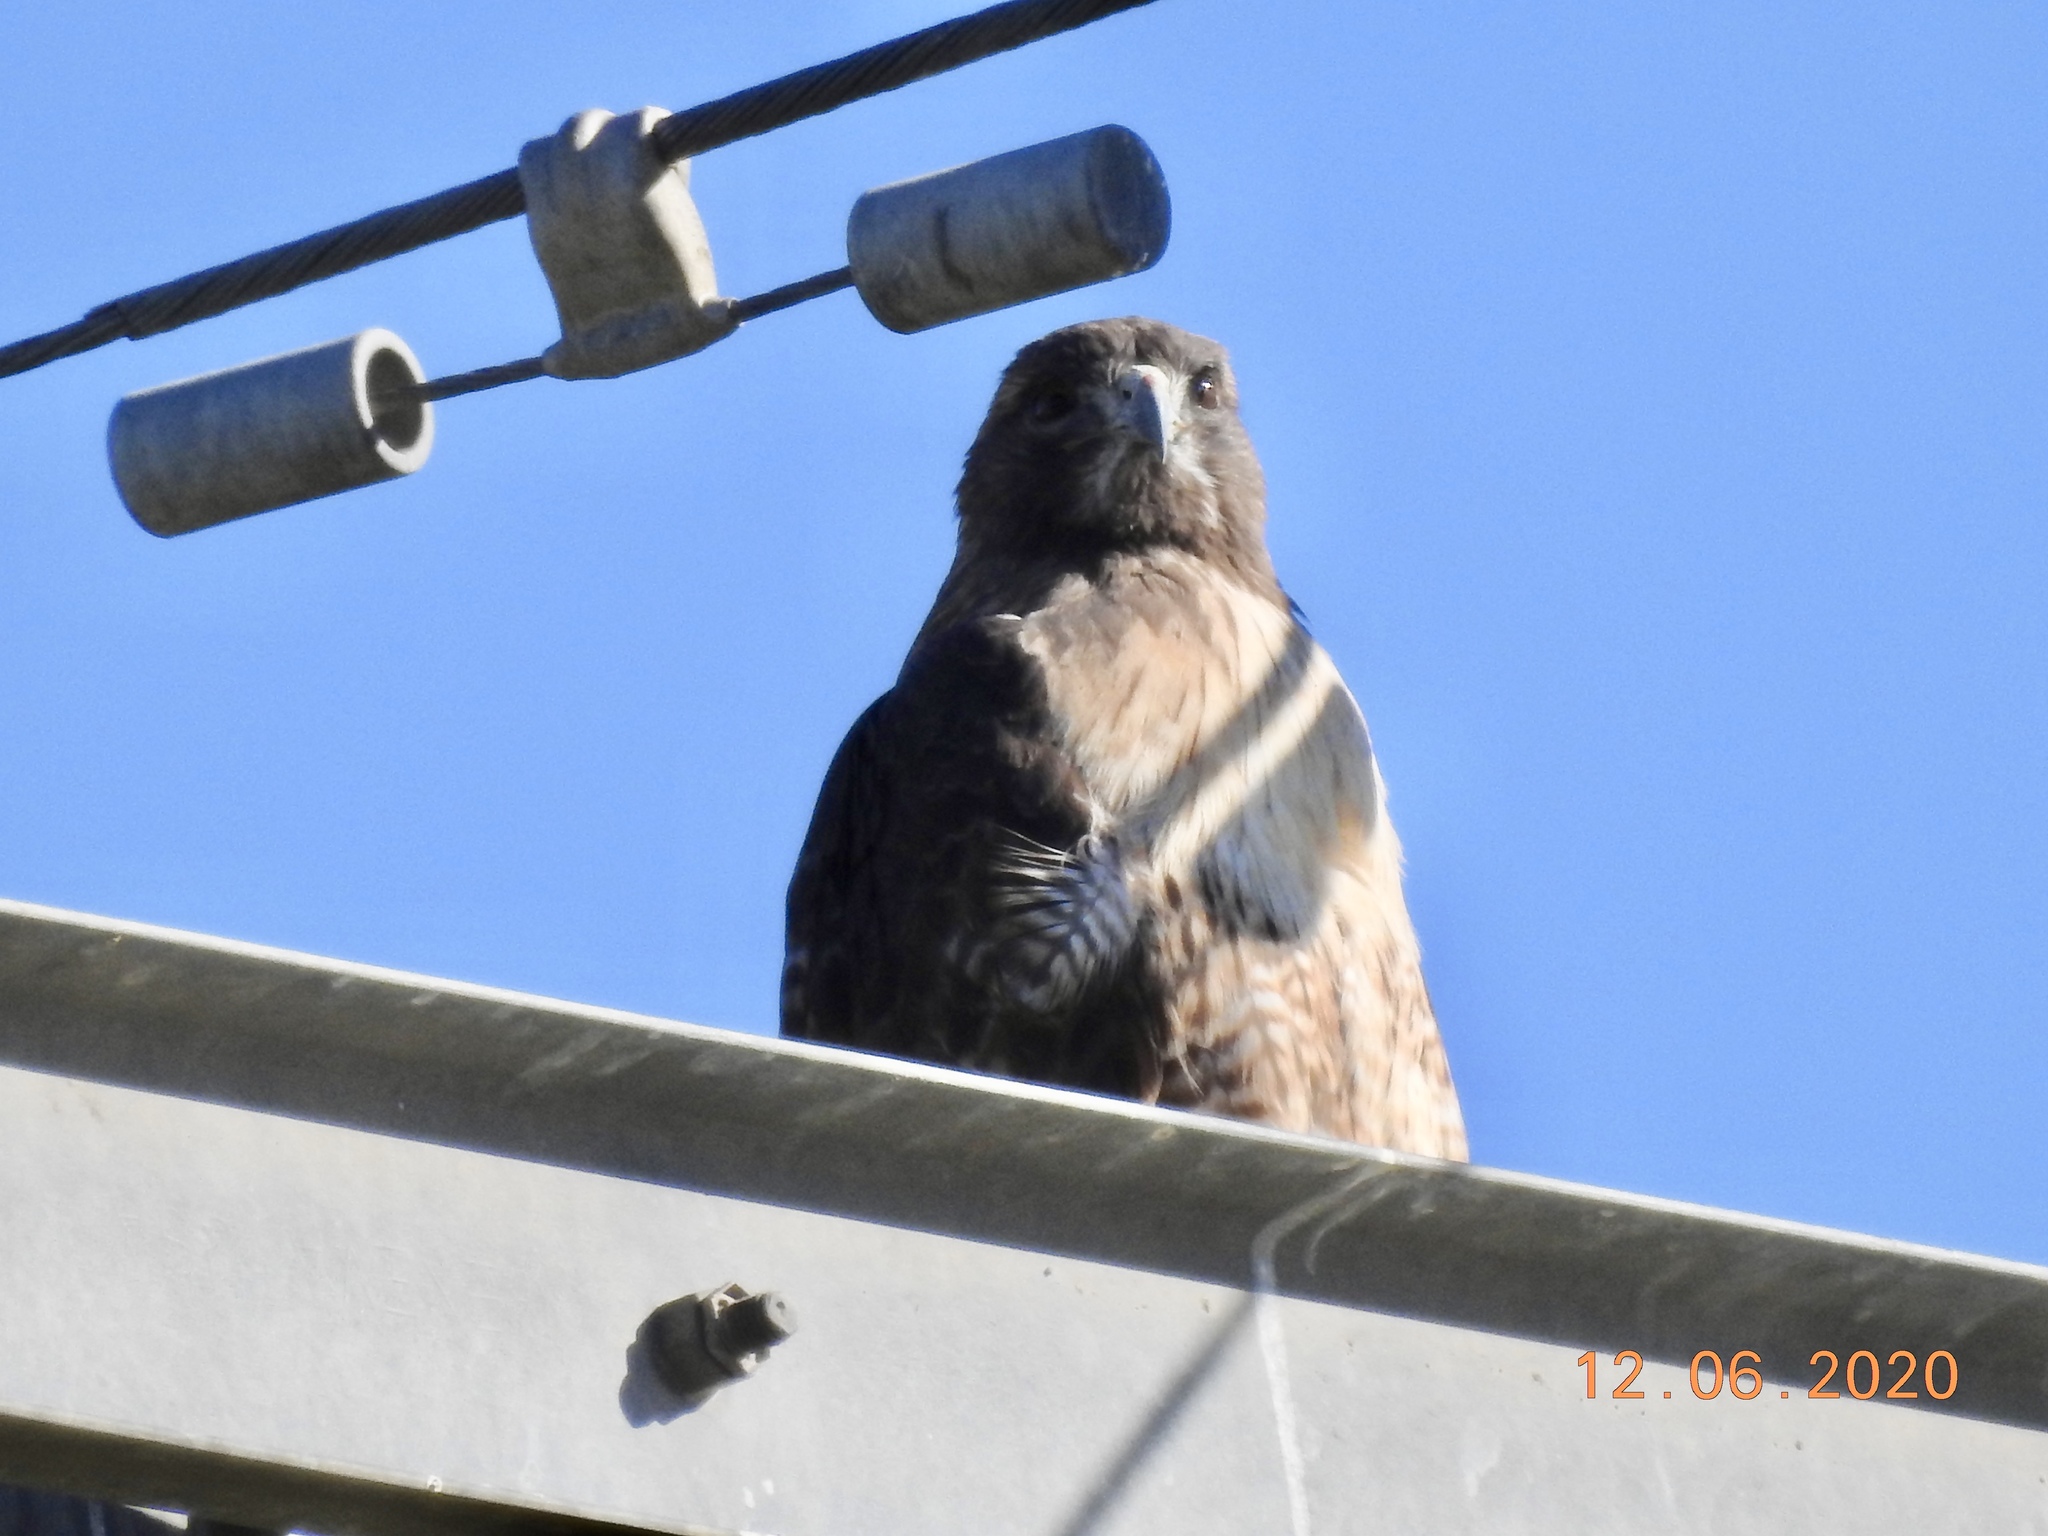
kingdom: Animalia
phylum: Chordata
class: Aves
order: Accipitriformes
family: Accipitridae
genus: Buteo
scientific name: Buteo jamaicensis
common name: Red-tailed hawk
